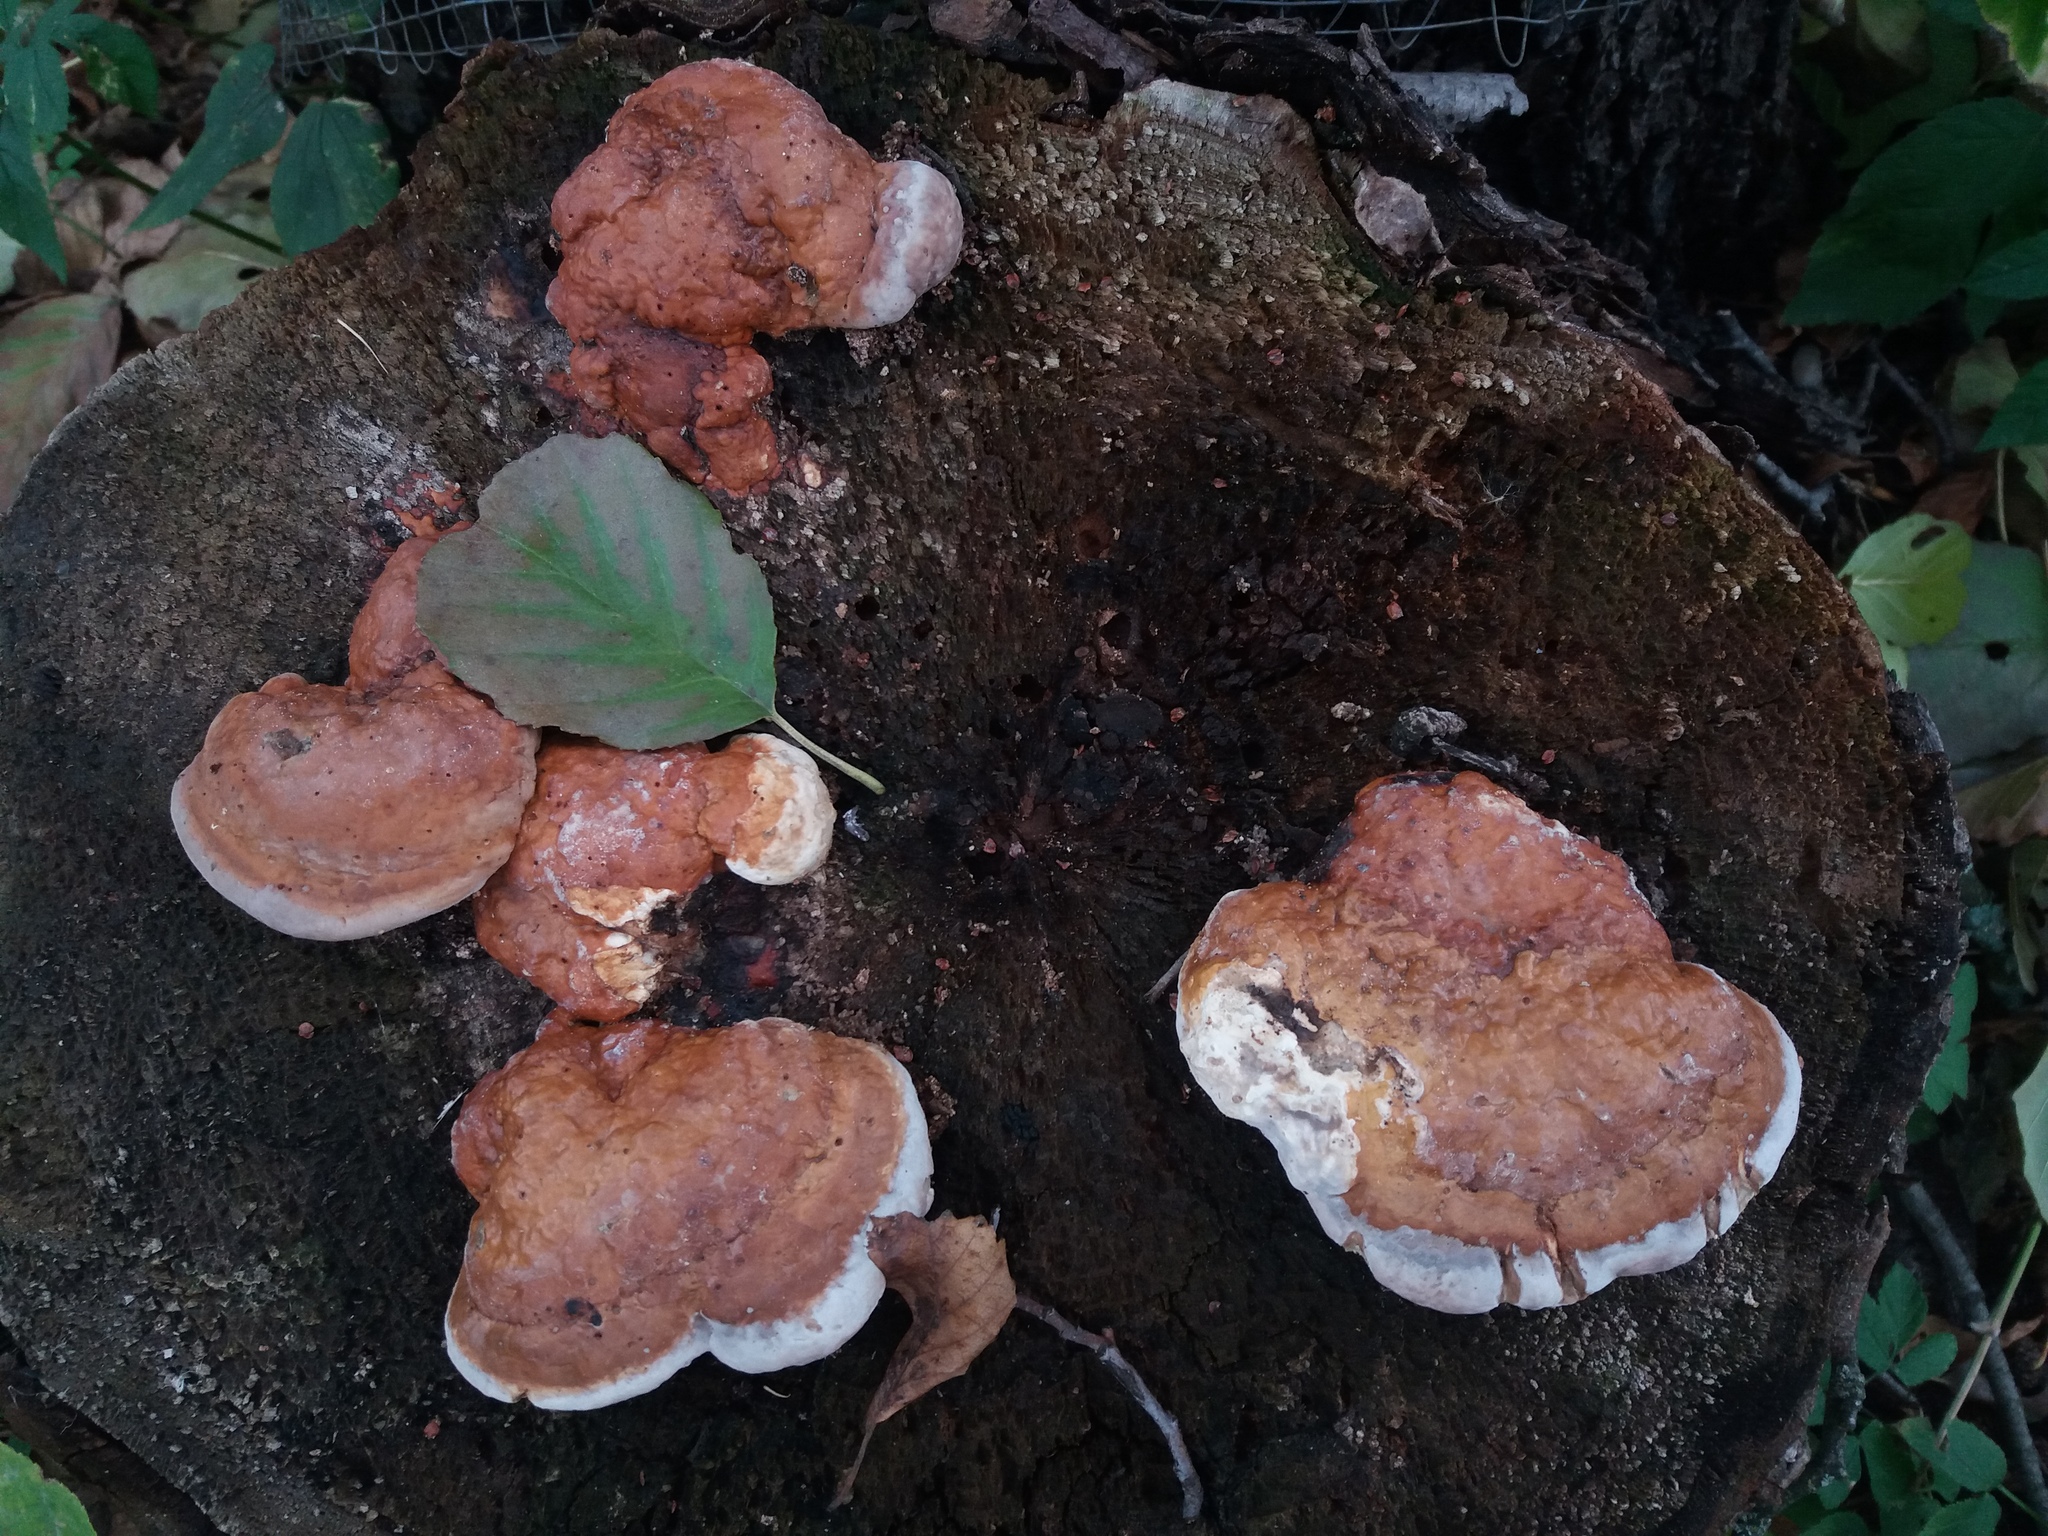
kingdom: Fungi
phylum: Basidiomycota
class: Agaricomycetes
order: Polyporales
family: Fomitopsidaceae
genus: Fomitopsis
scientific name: Fomitopsis pinicola
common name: Red-belted bracket
